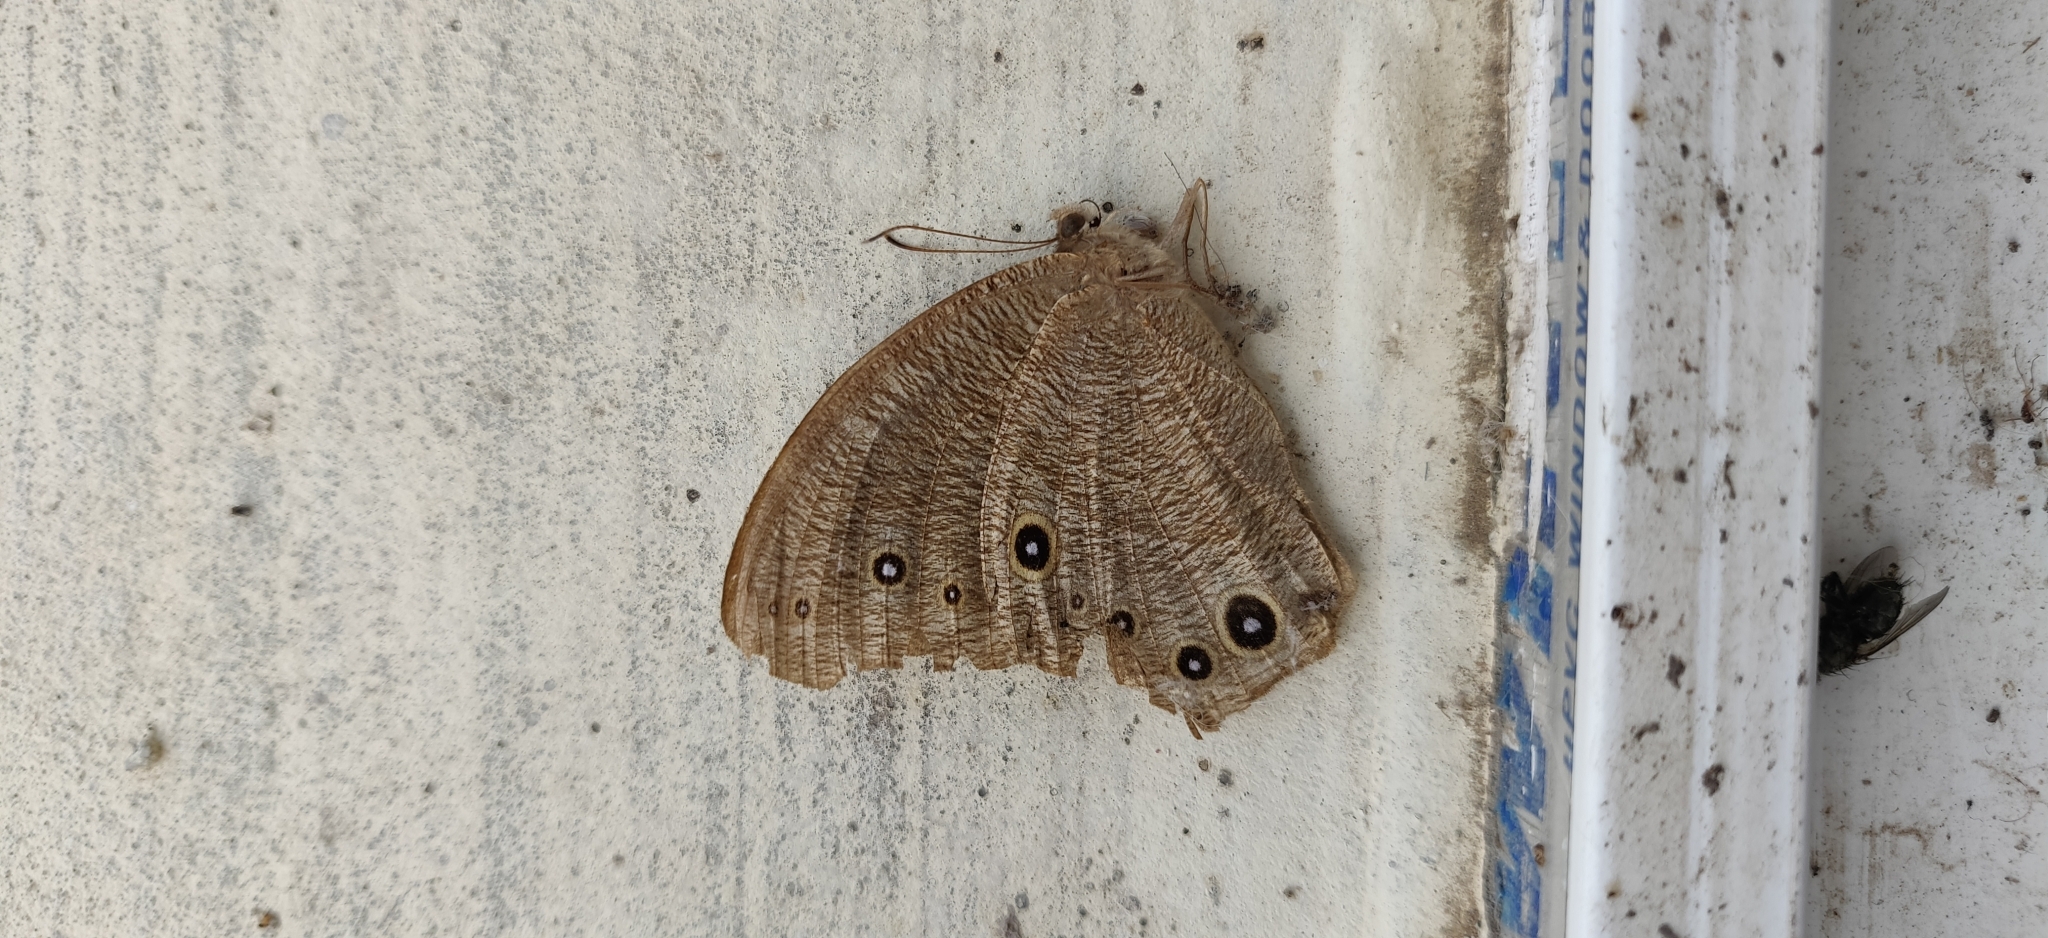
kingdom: Animalia
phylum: Arthropoda
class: Insecta
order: Lepidoptera
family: Nymphalidae
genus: Melanitis
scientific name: Melanitis leda
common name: Twilight brown
